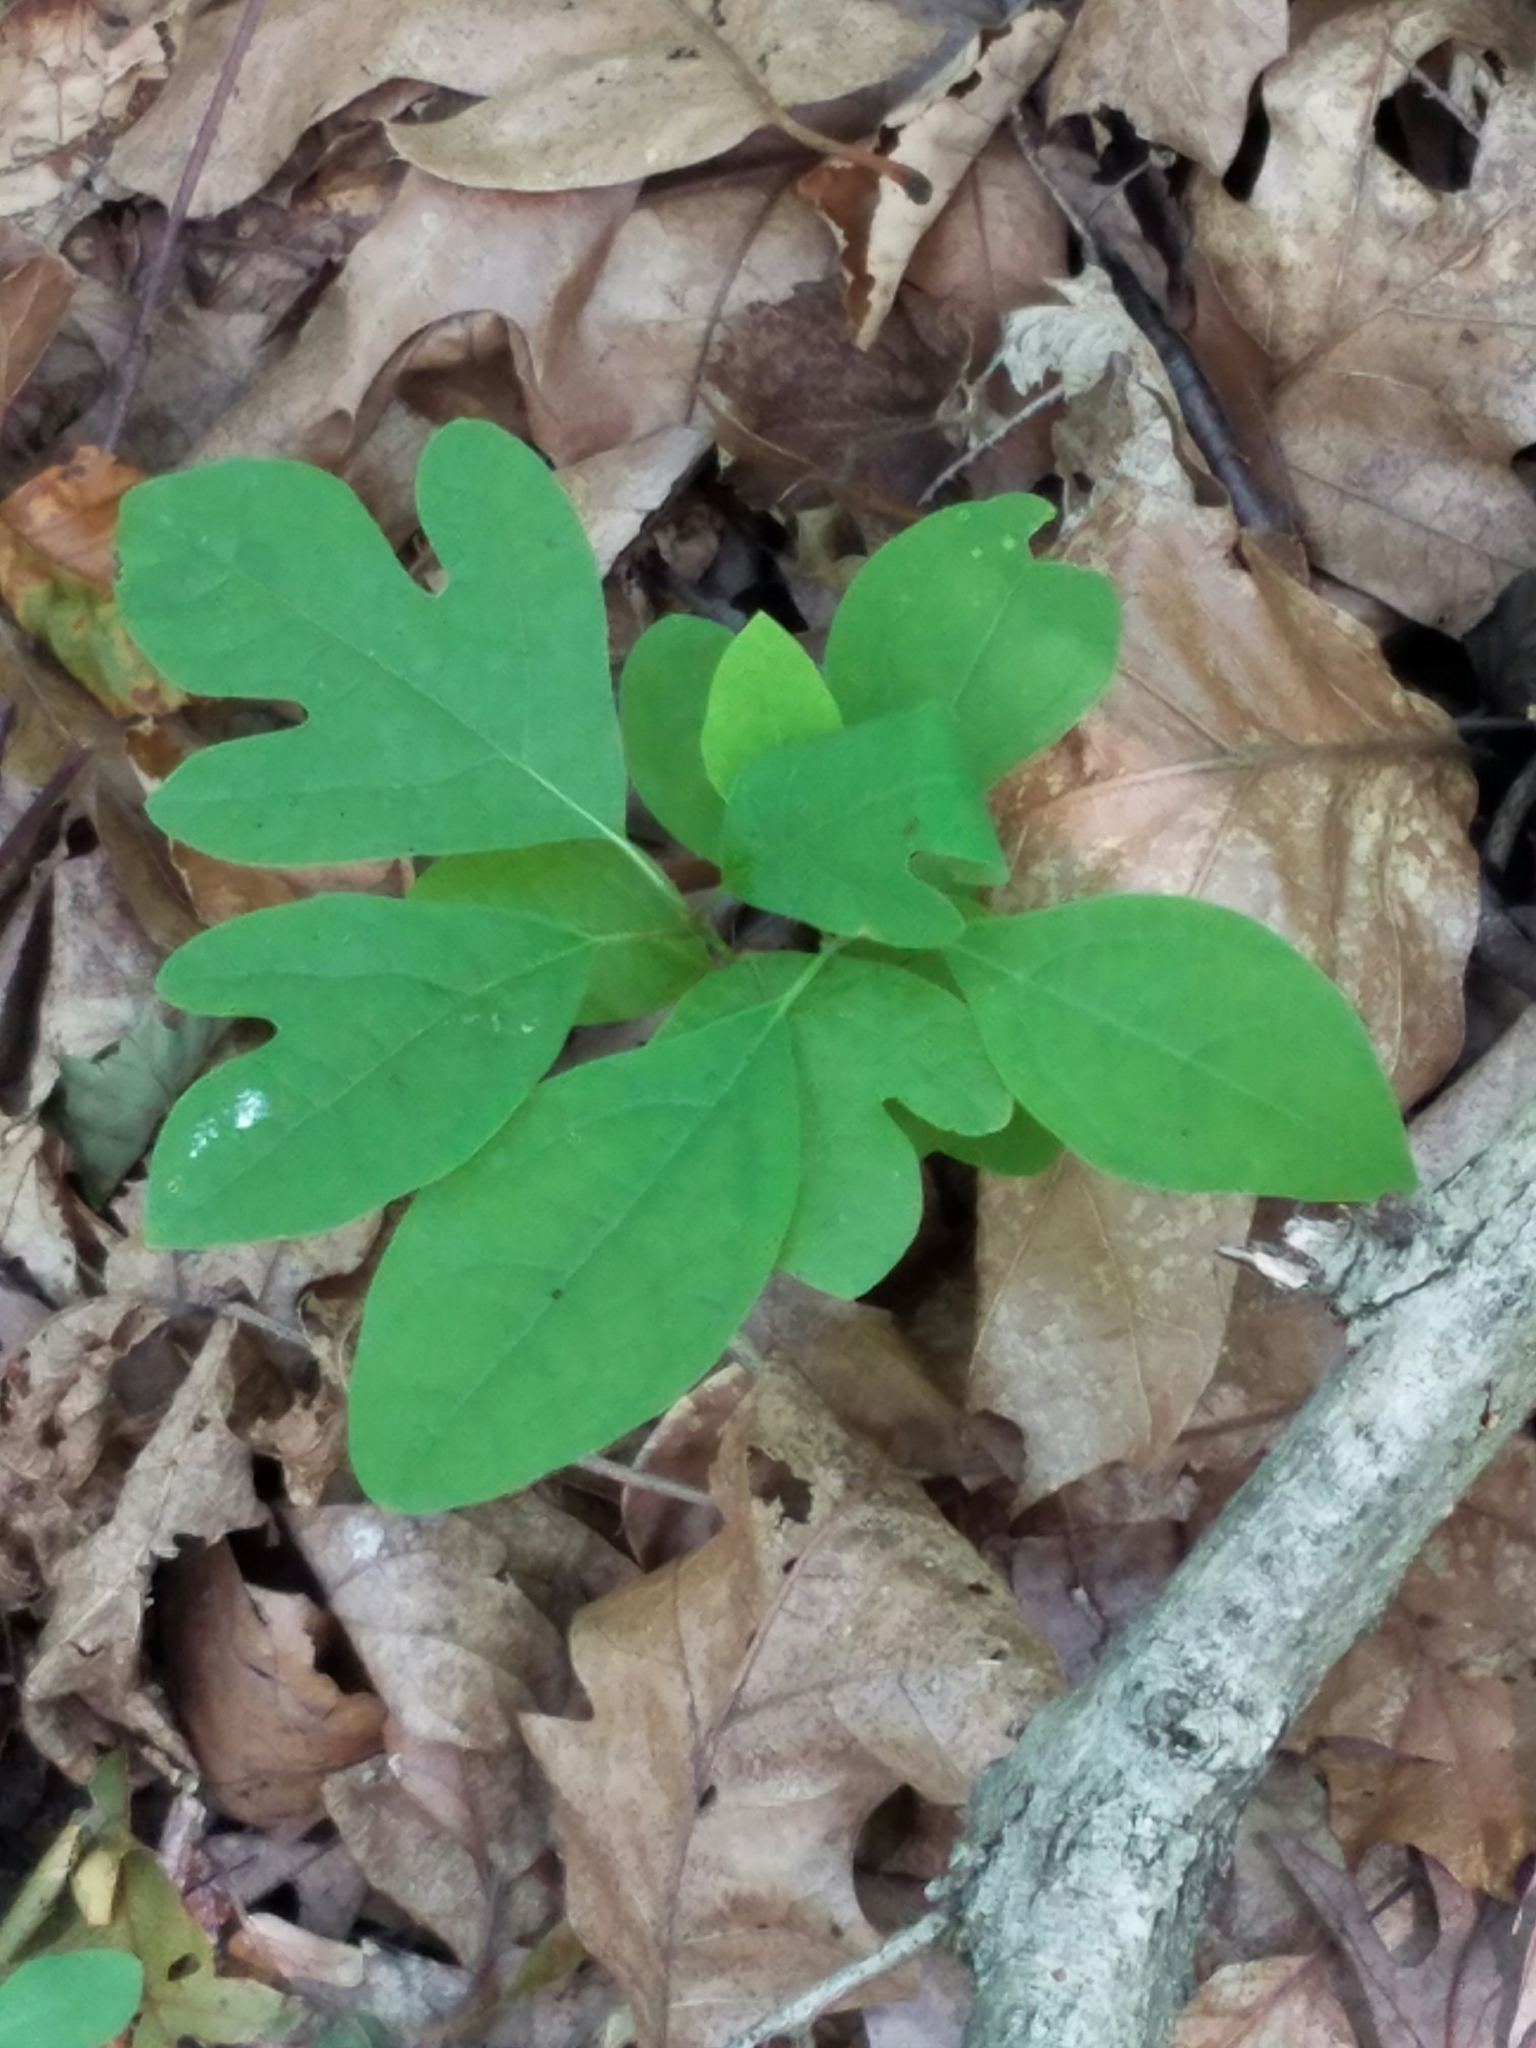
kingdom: Plantae
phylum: Tracheophyta
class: Magnoliopsida
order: Laurales
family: Lauraceae
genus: Sassafras
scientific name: Sassafras albidum
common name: Sassafras
